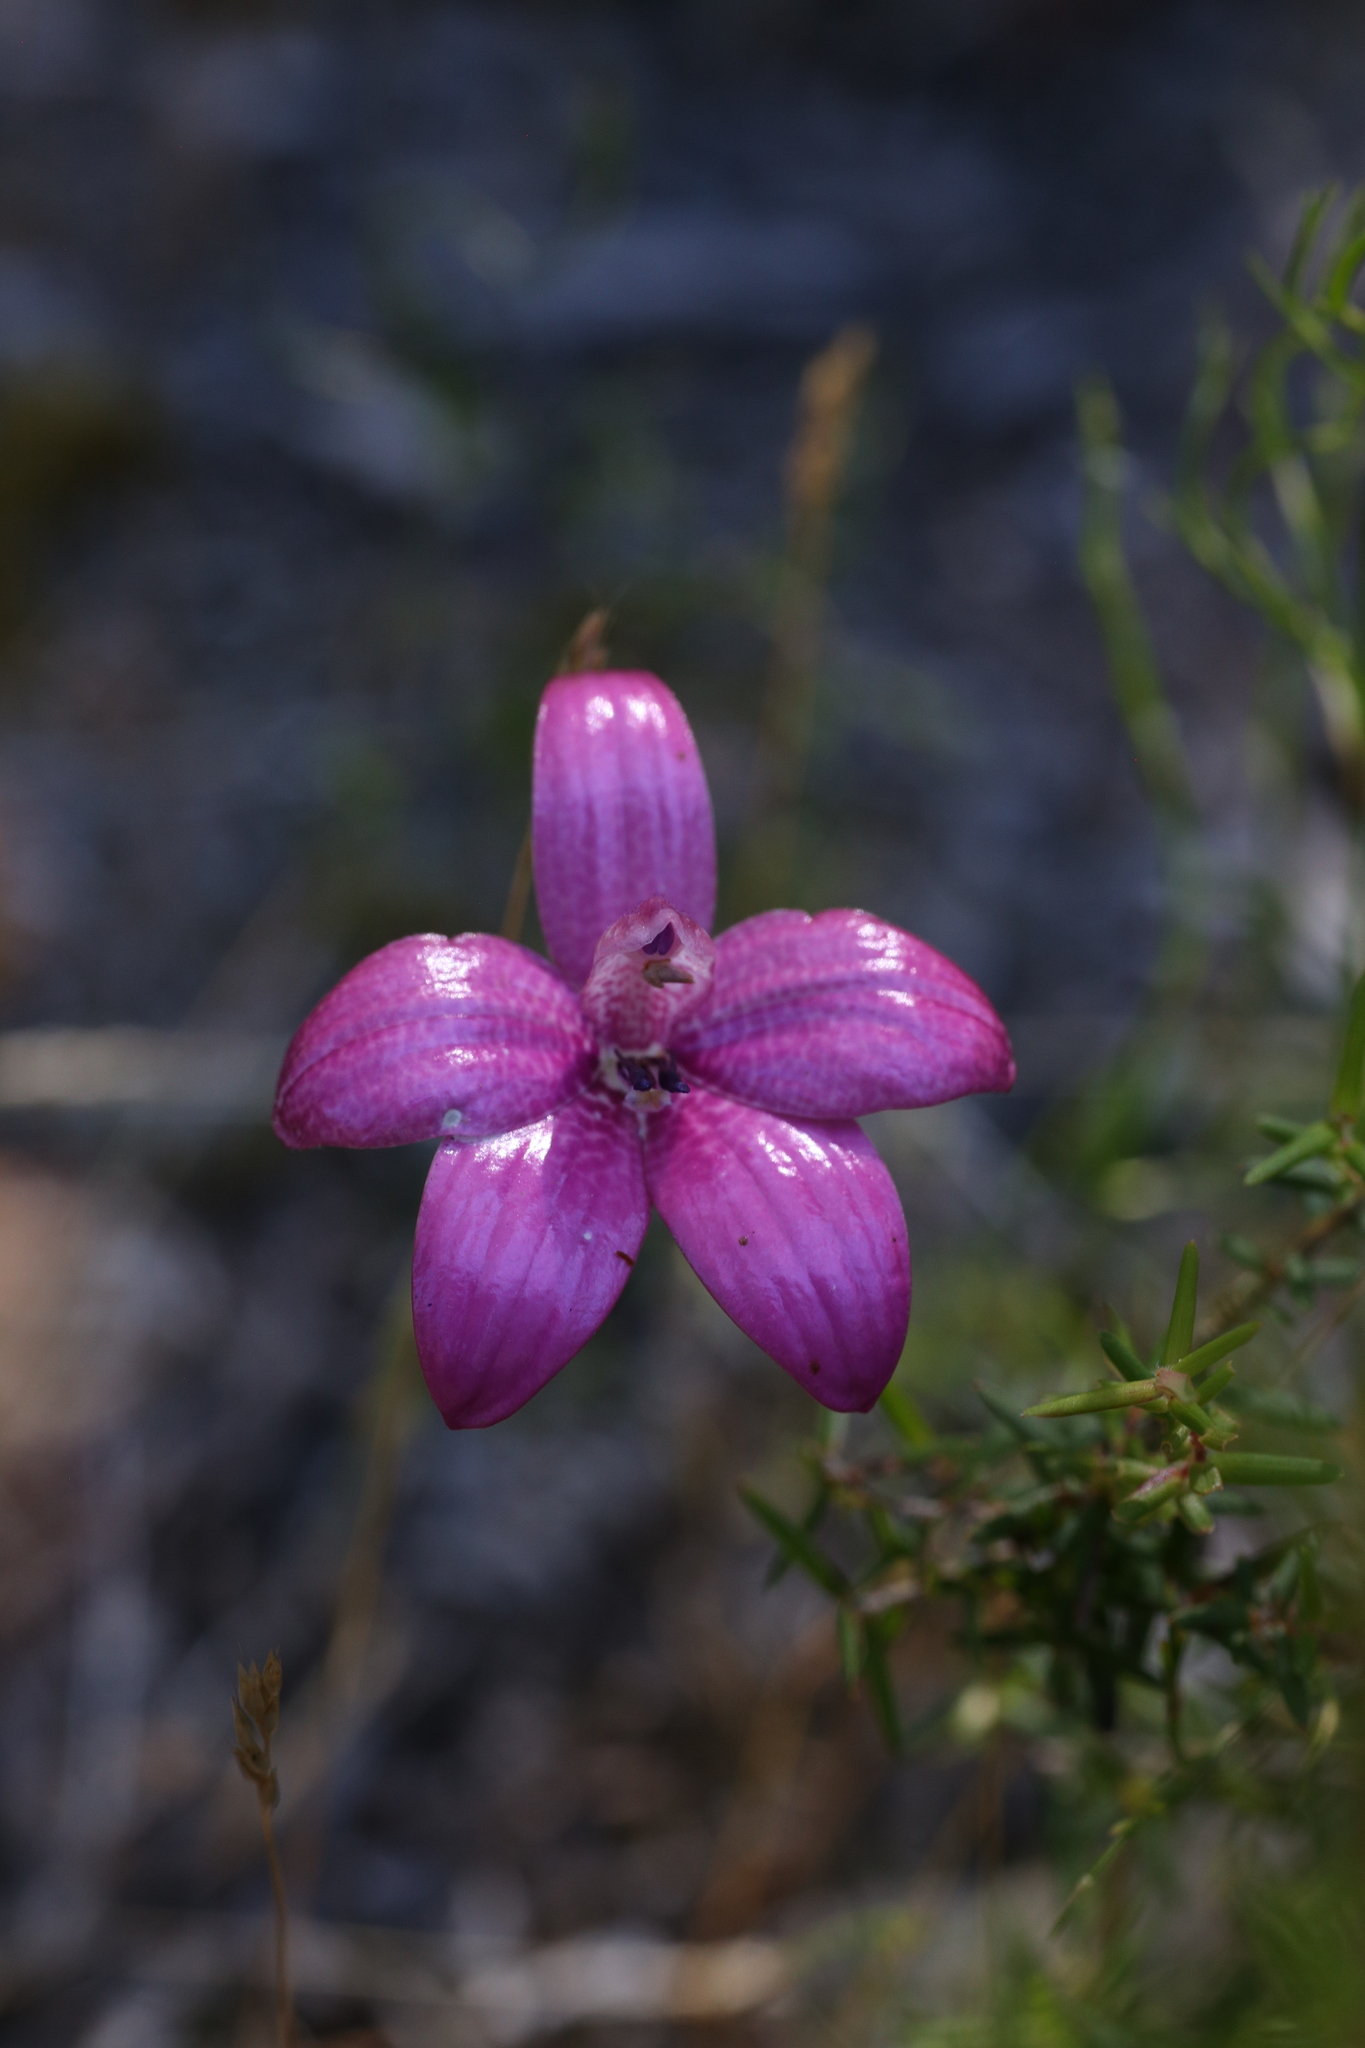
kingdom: Plantae
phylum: Tracheophyta
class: Liliopsida
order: Asparagales
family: Orchidaceae
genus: Caladenia
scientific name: Caladenia emarginata
